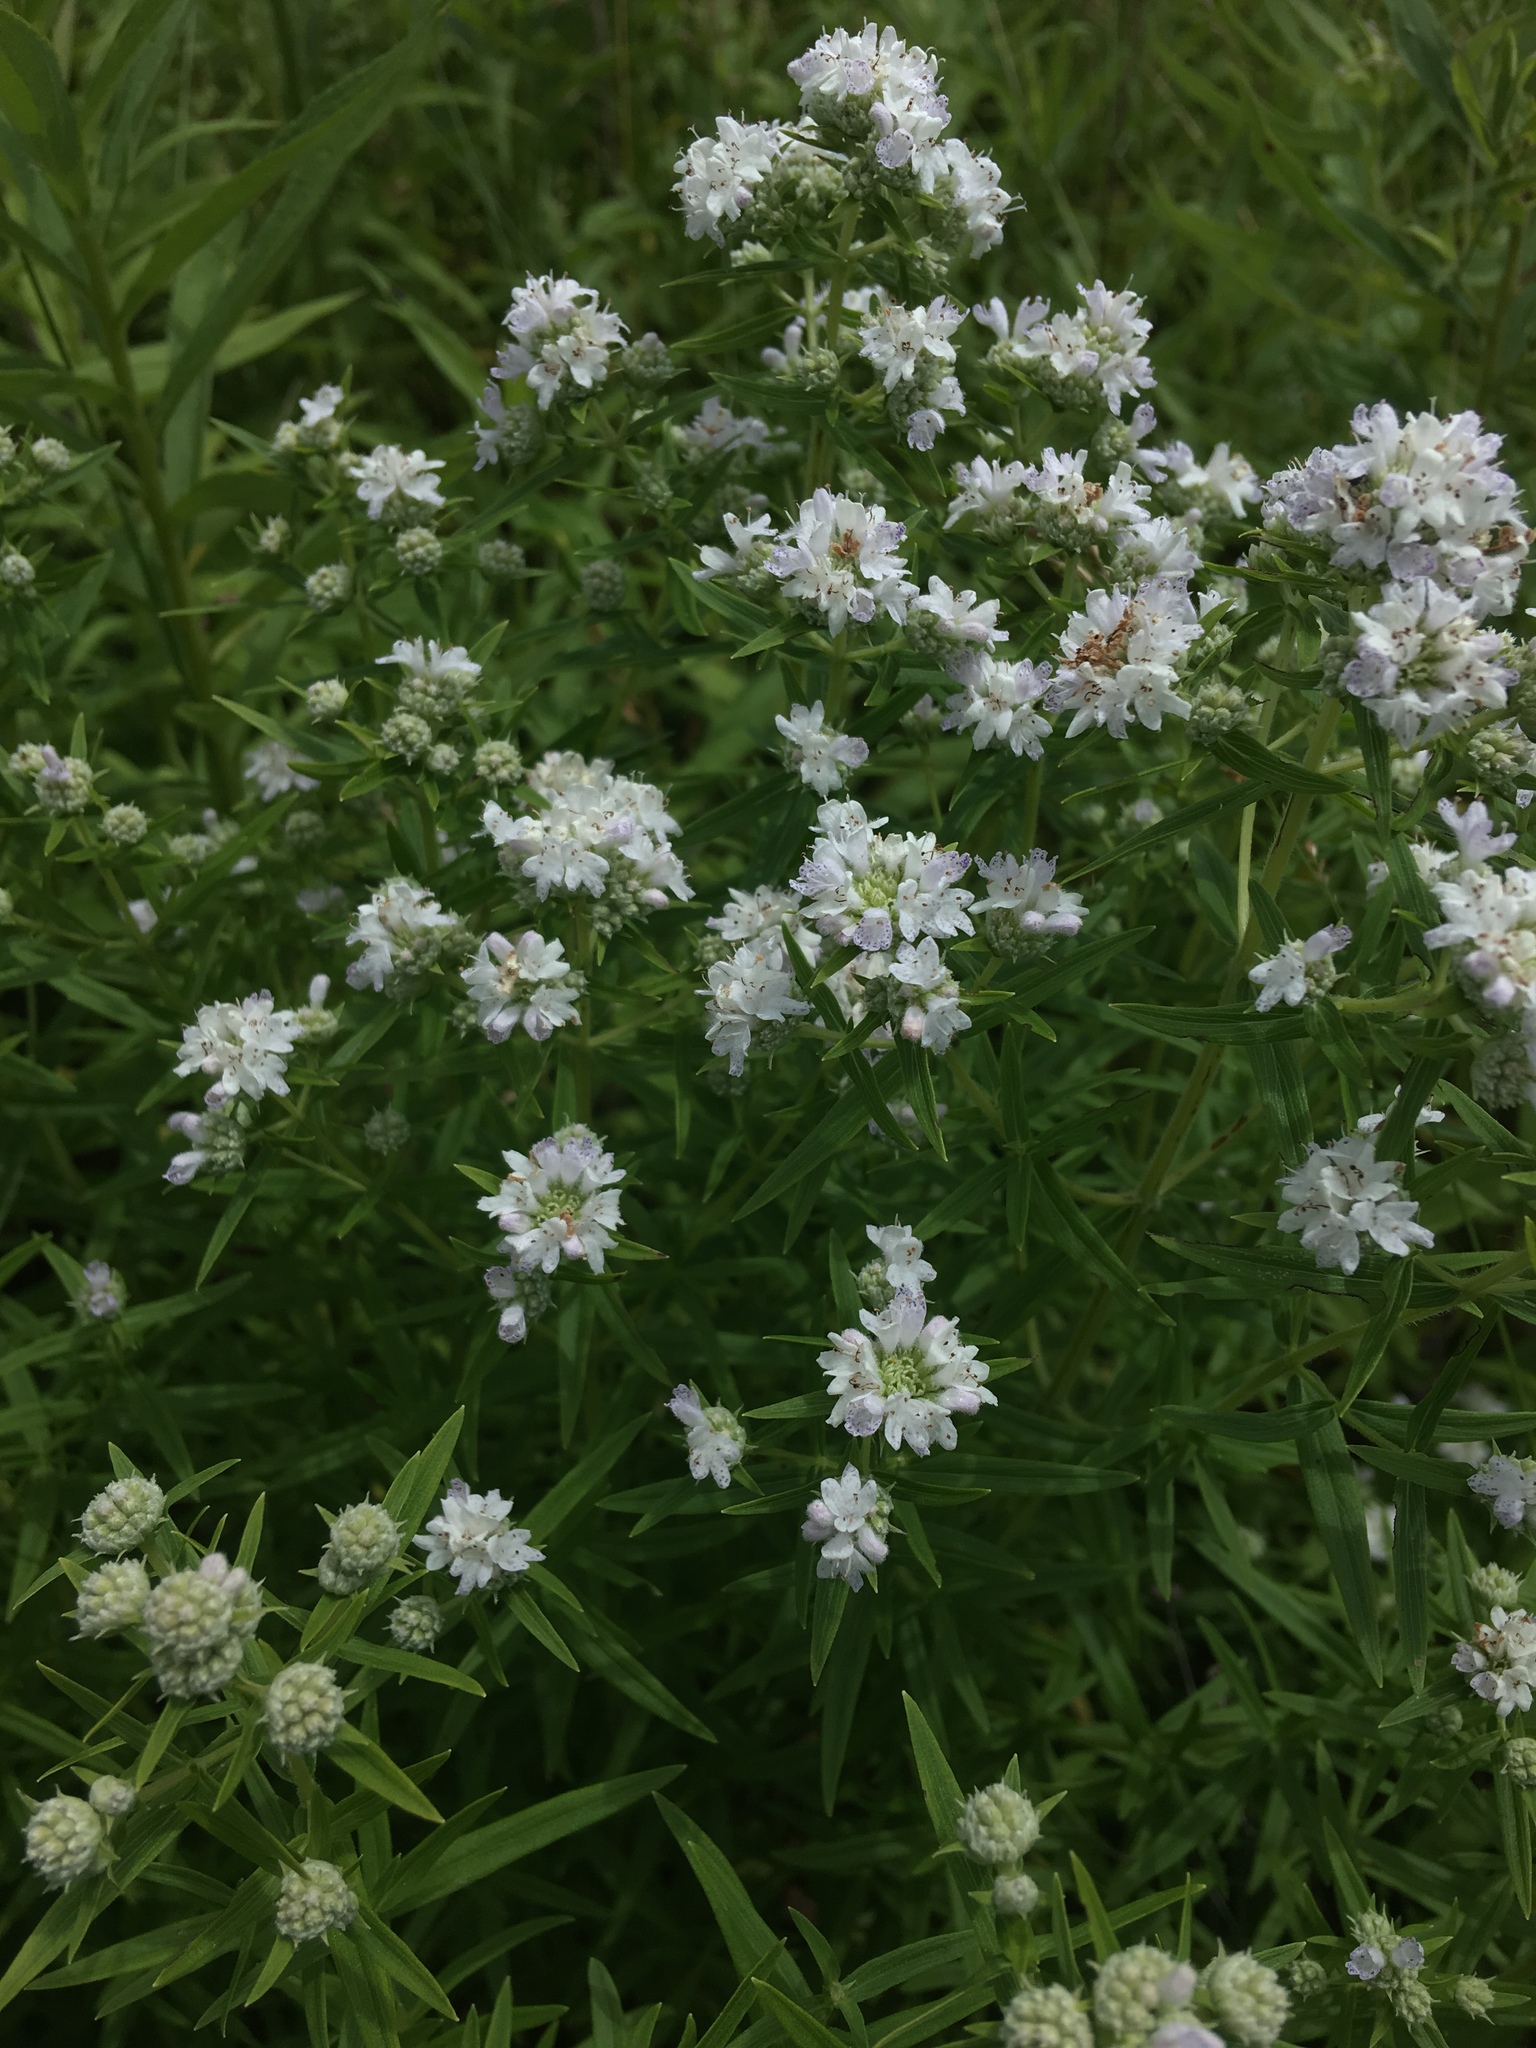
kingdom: Plantae
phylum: Tracheophyta
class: Magnoliopsida
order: Lamiales
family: Lamiaceae
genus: Pycnanthemum
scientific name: Pycnanthemum virginianum
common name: Virginia mountain-mint
